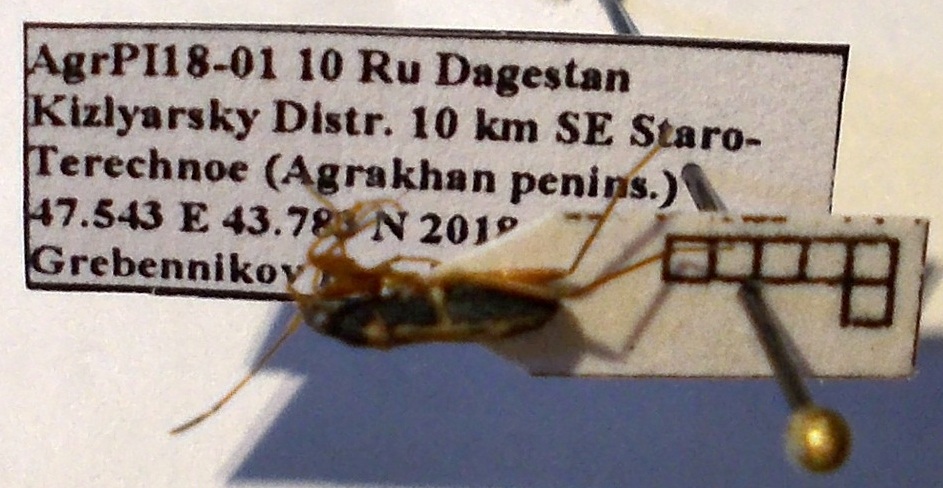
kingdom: Animalia
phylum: Arthropoda
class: Insecta
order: Hemiptera
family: Rhyparochromidae
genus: Beosus
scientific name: Beosus quadripunctatus
